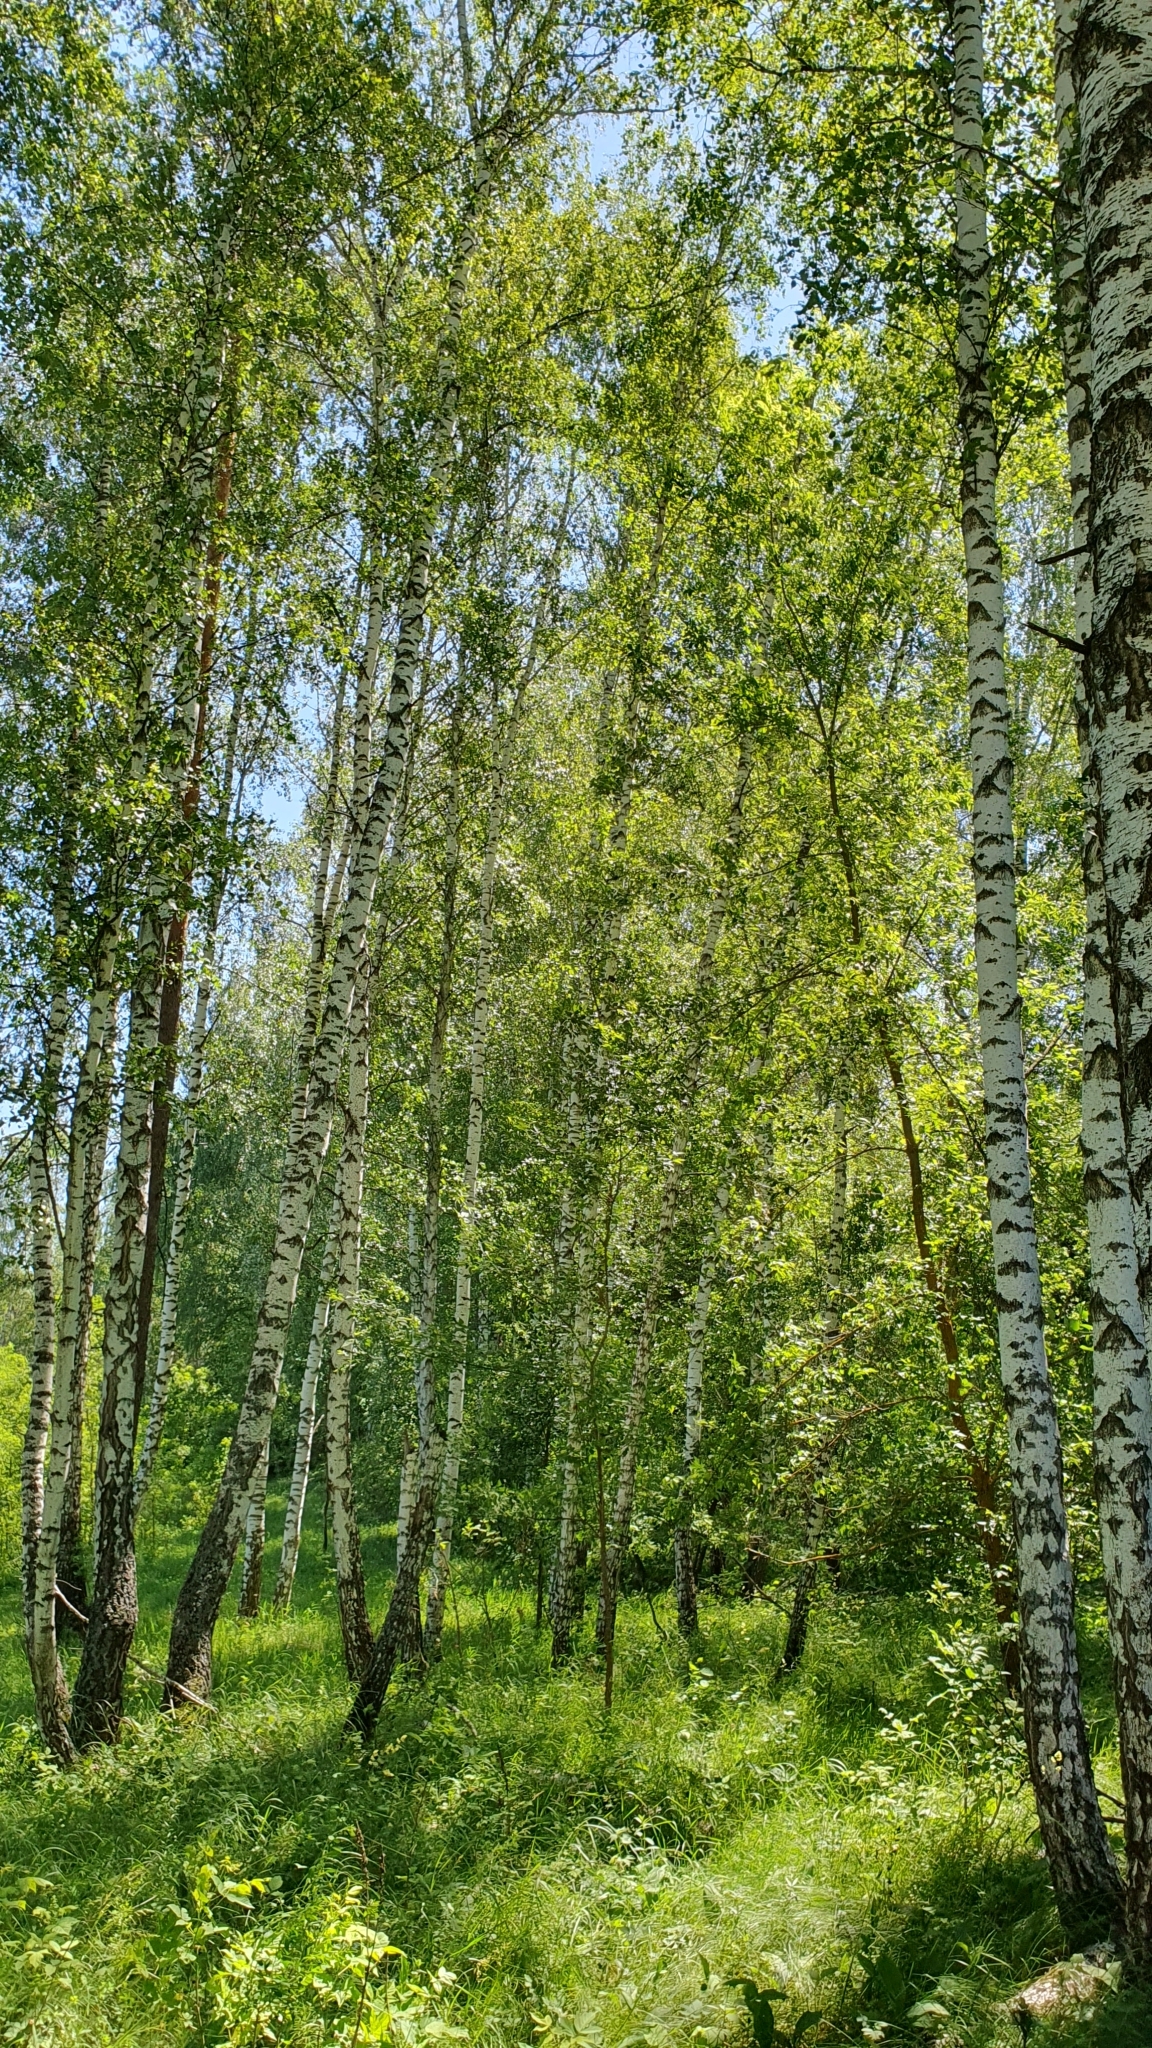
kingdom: Plantae
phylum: Tracheophyta
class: Magnoliopsida
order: Fagales
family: Betulaceae
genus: Betula
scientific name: Betula pendula
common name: Silver birch
